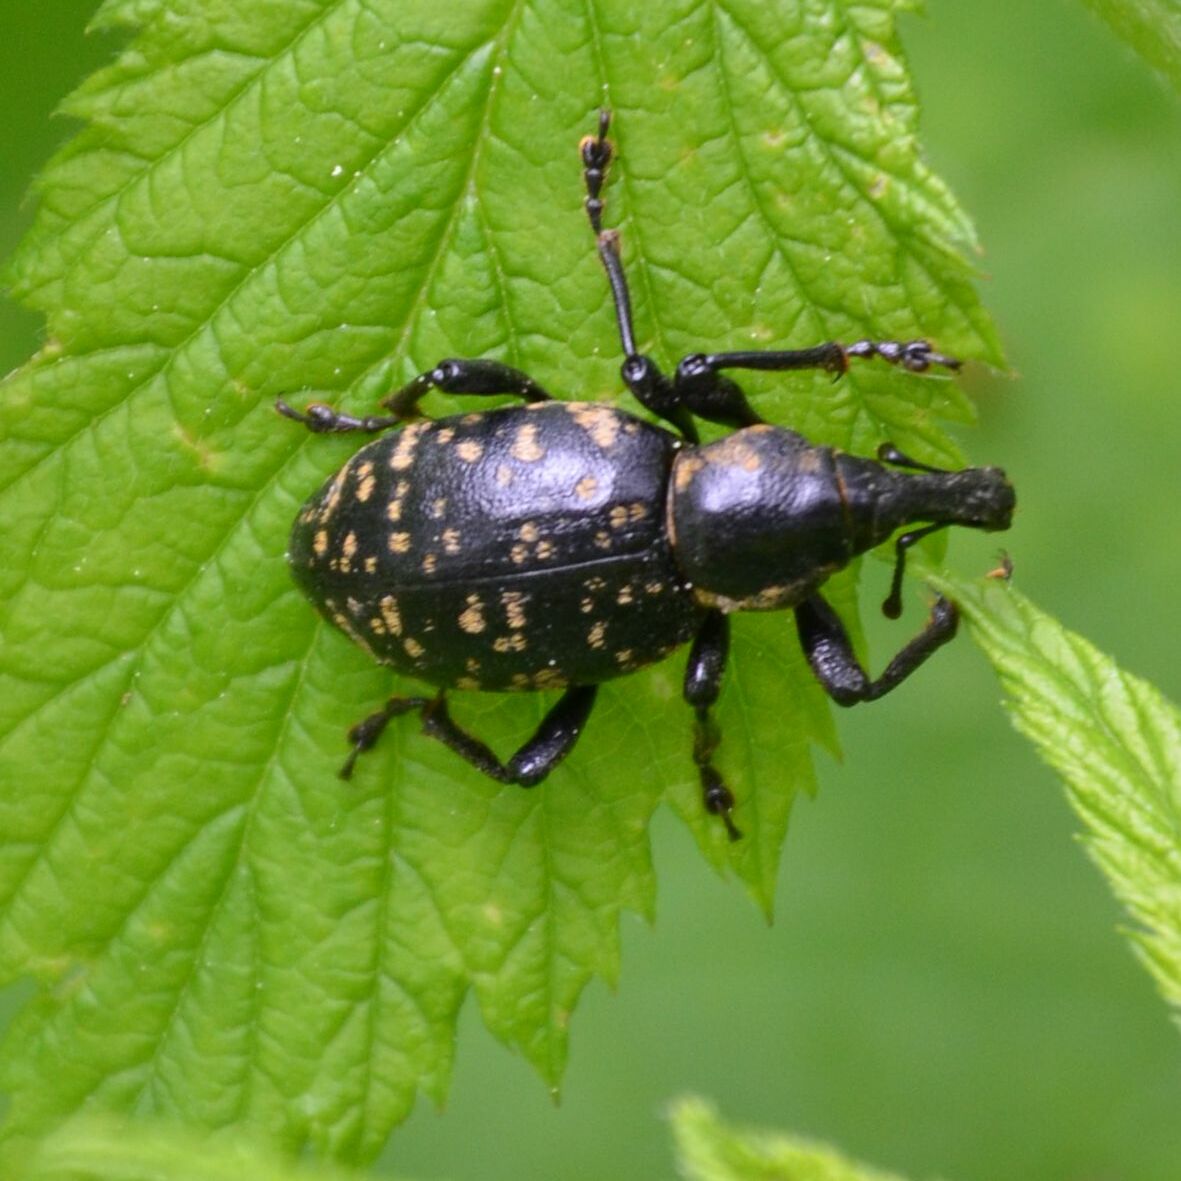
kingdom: Animalia
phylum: Arthropoda
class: Insecta
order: Coleoptera
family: Curculionidae
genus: Liparus
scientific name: Liparus glabrirostris
